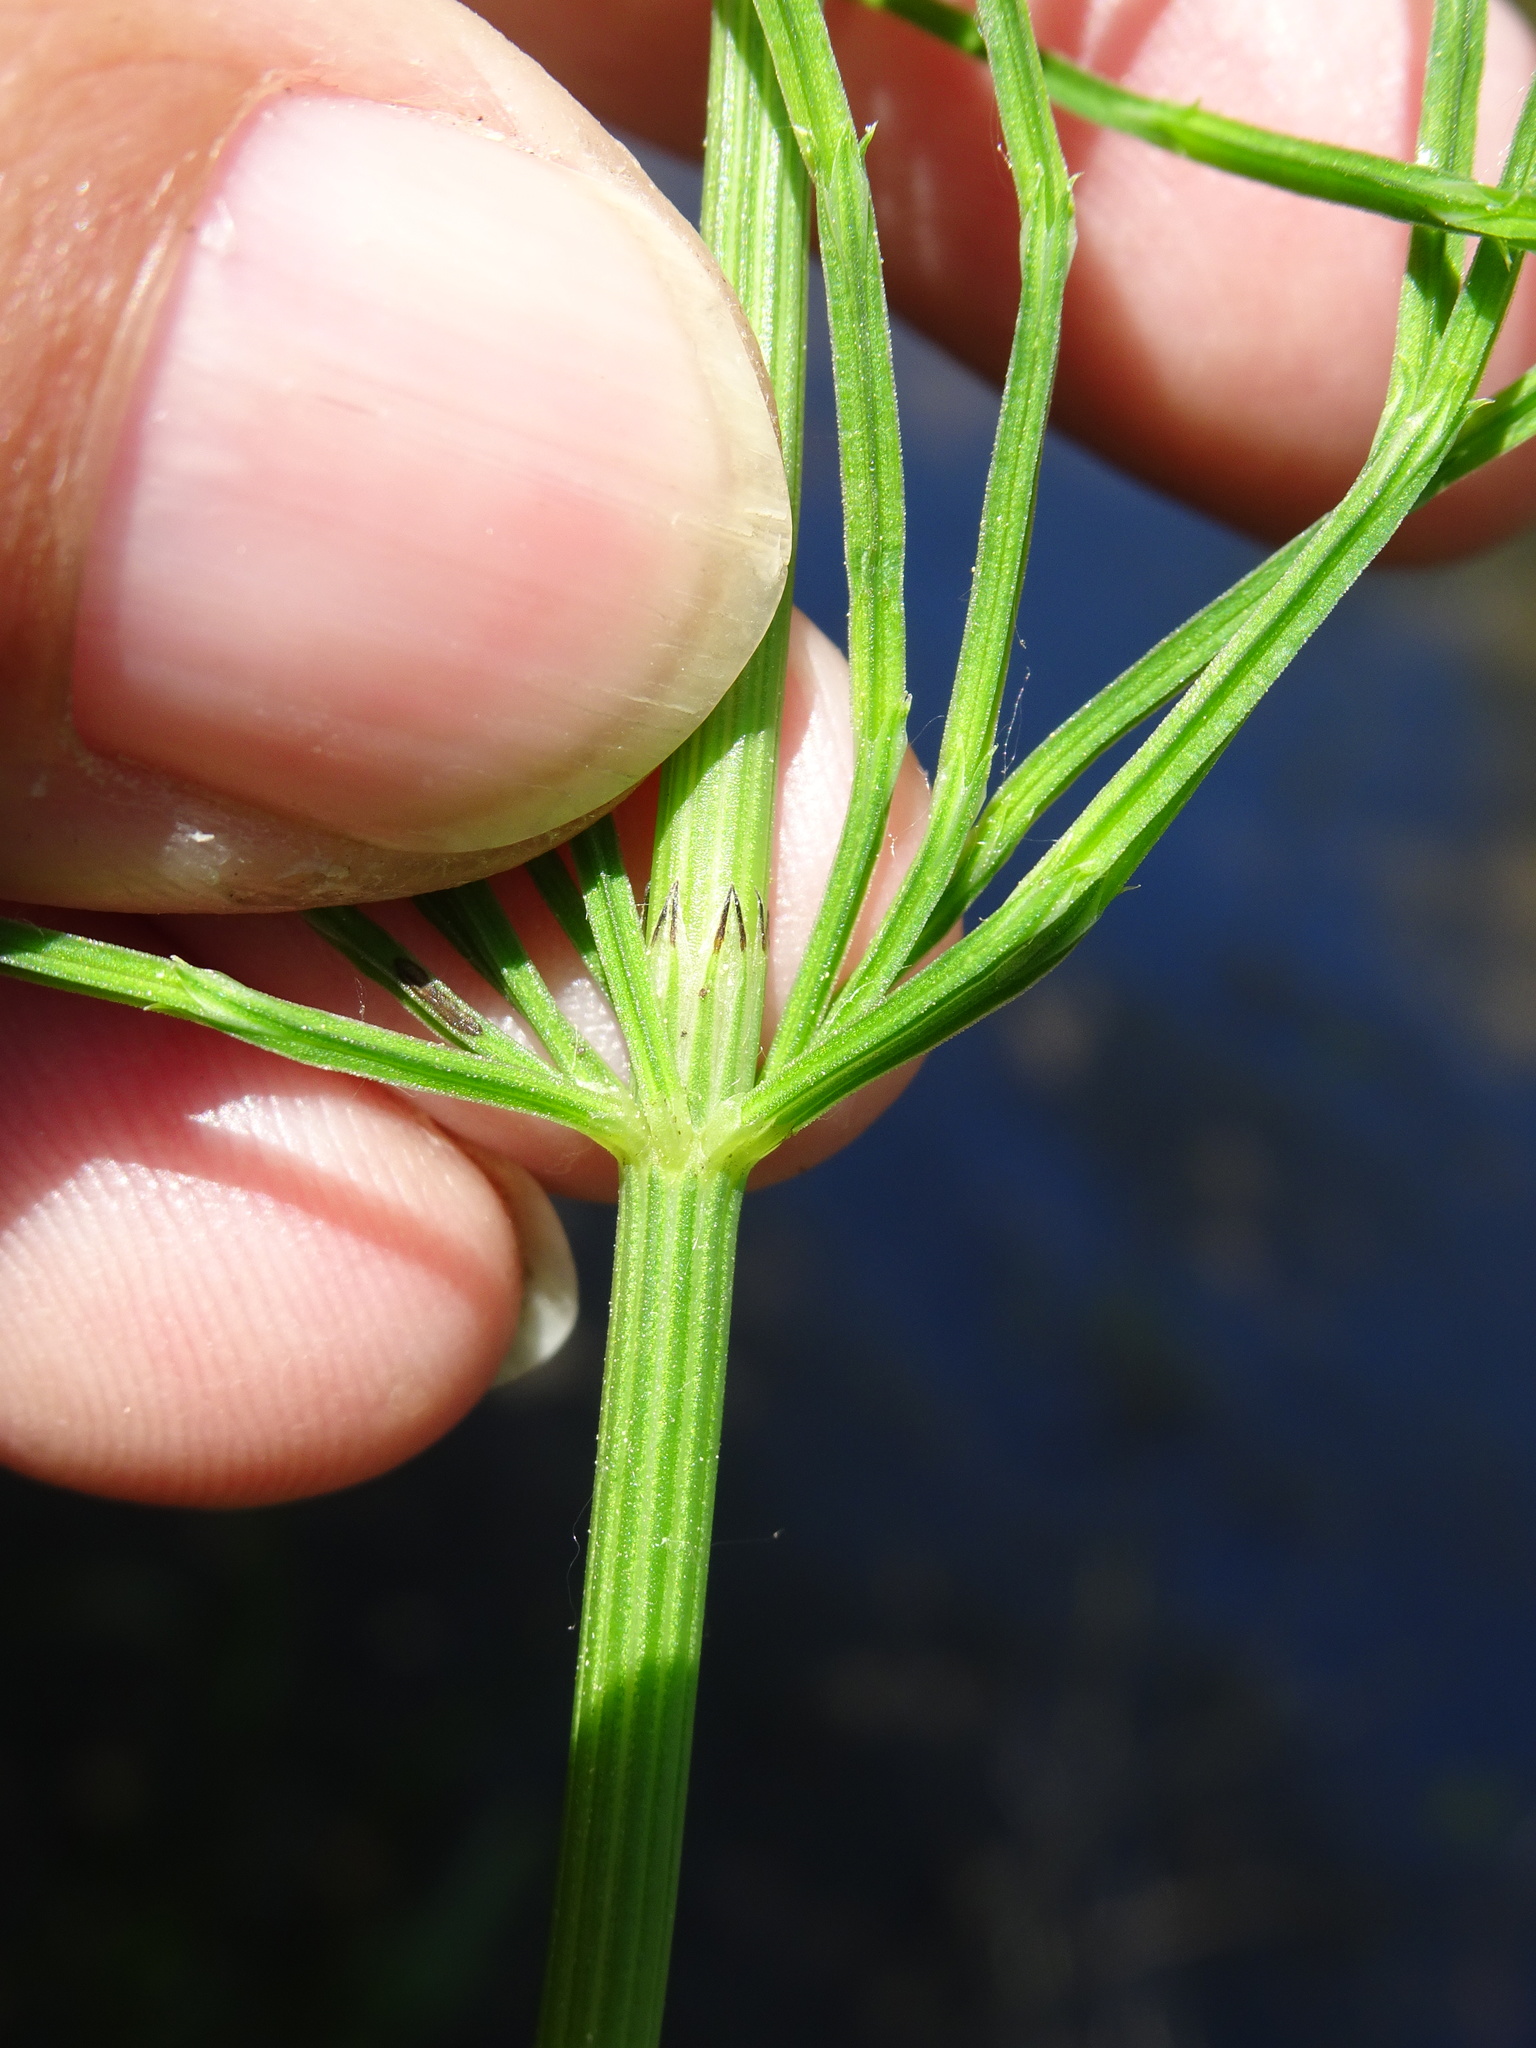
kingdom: Plantae
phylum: Tracheophyta
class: Polypodiopsida
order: Equisetales
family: Equisetaceae
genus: Equisetum
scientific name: Equisetum arvense
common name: Field horsetail
